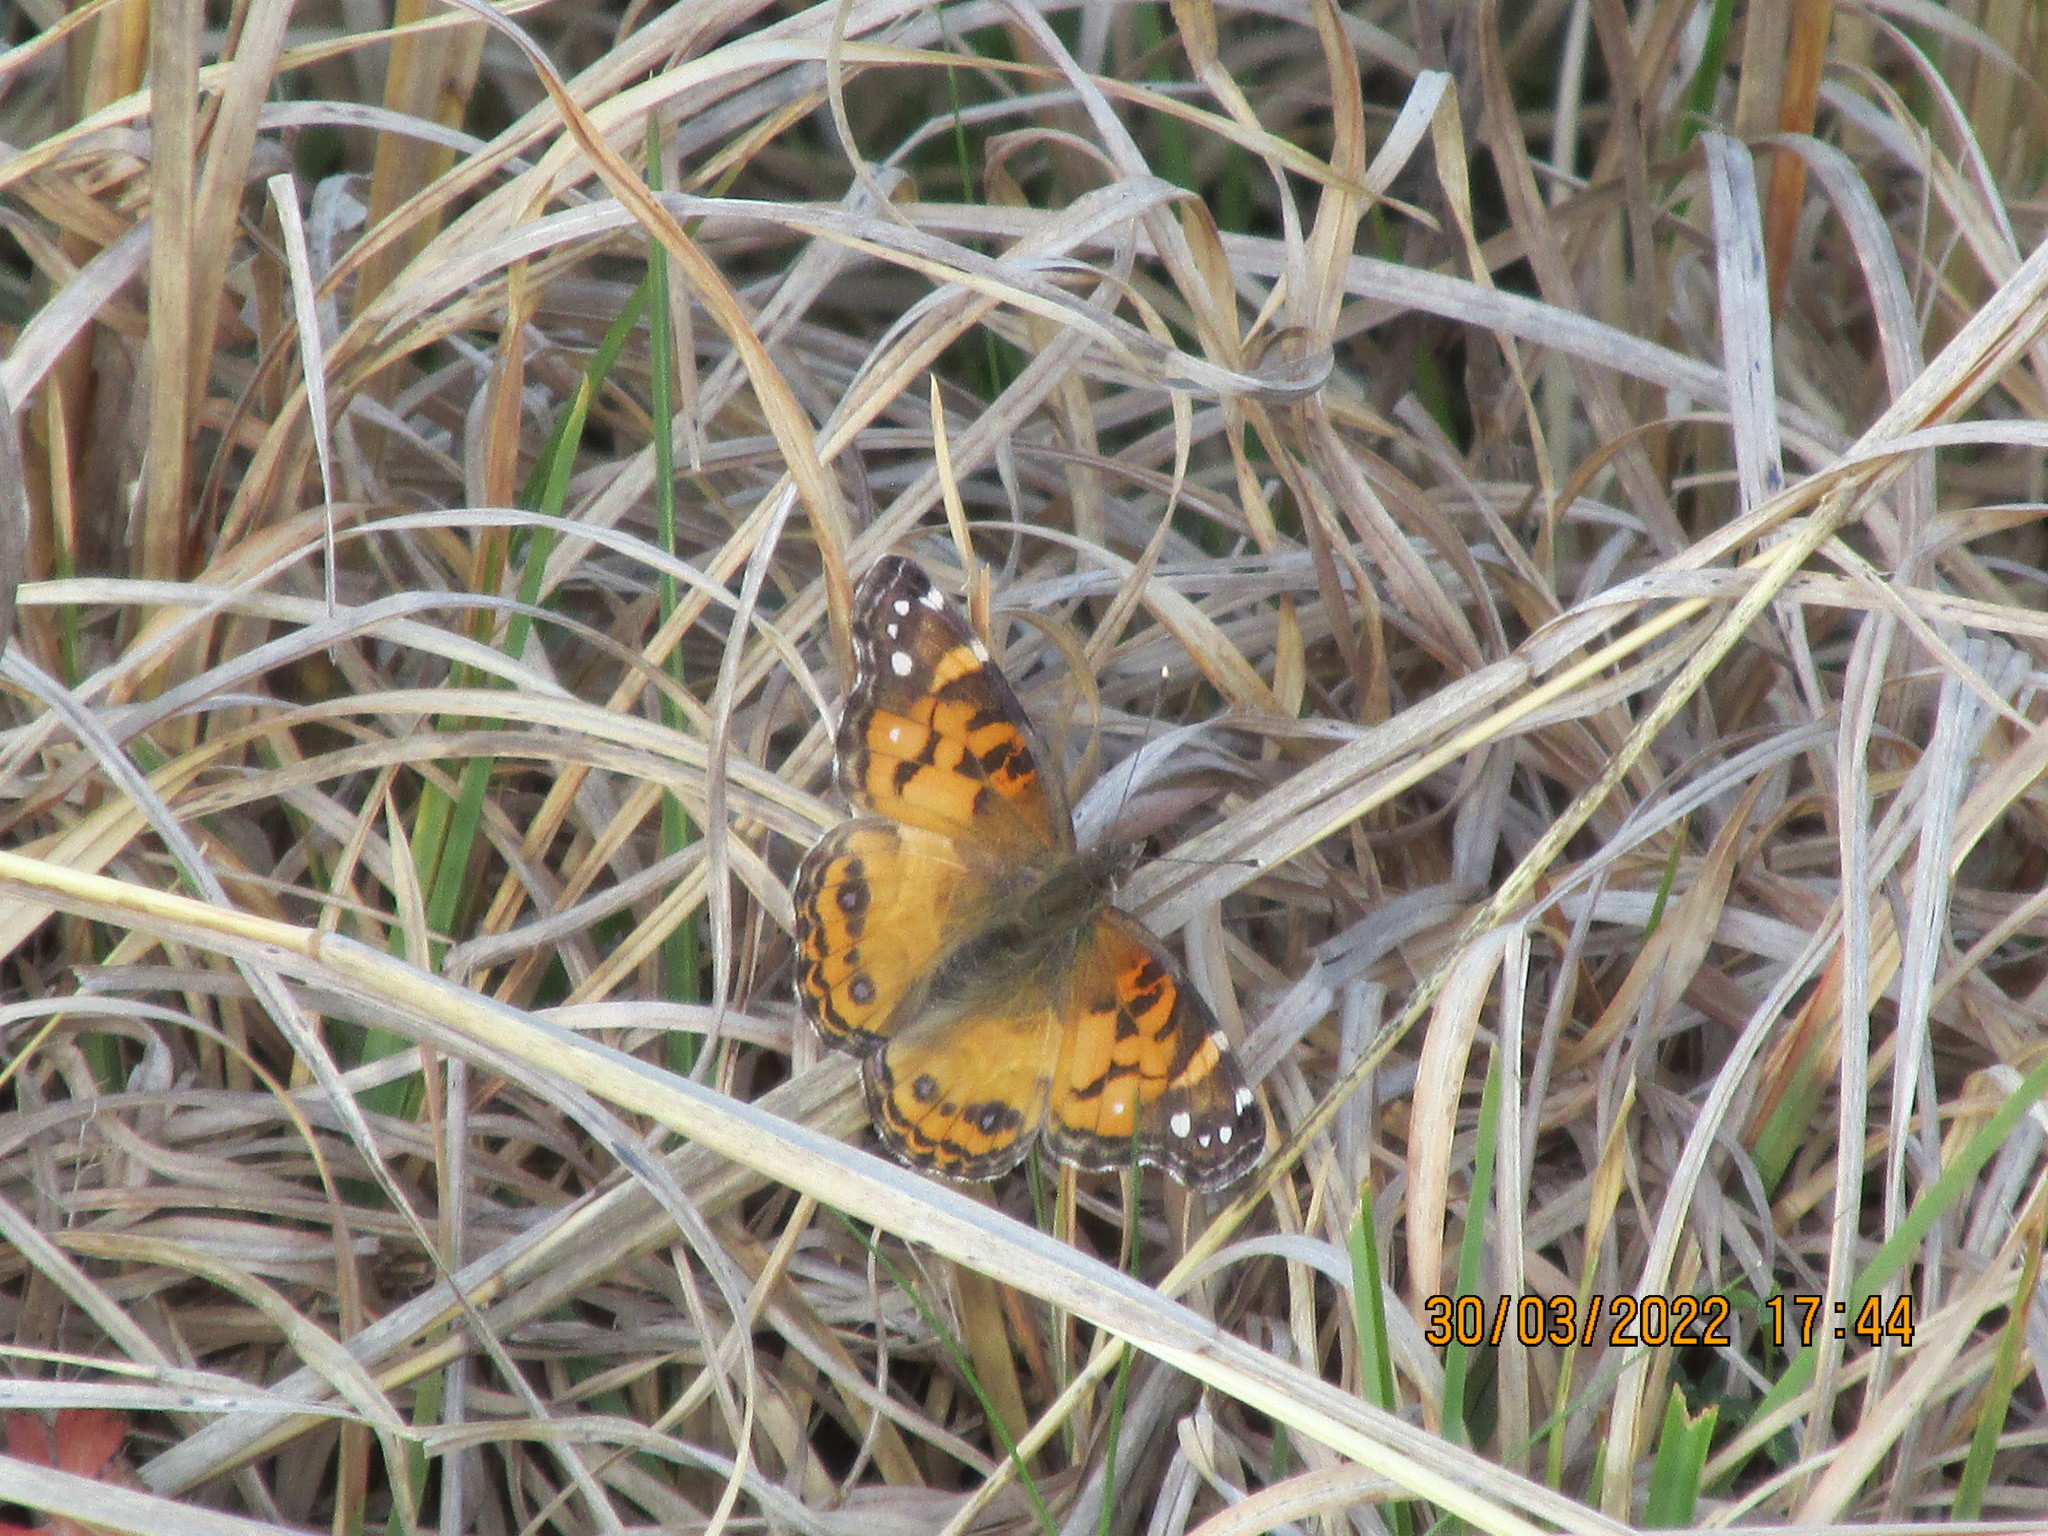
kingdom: Animalia
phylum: Arthropoda
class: Insecta
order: Lepidoptera
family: Nymphalidae
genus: Vanessa
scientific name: Vanessa virginiensis
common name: American lady
